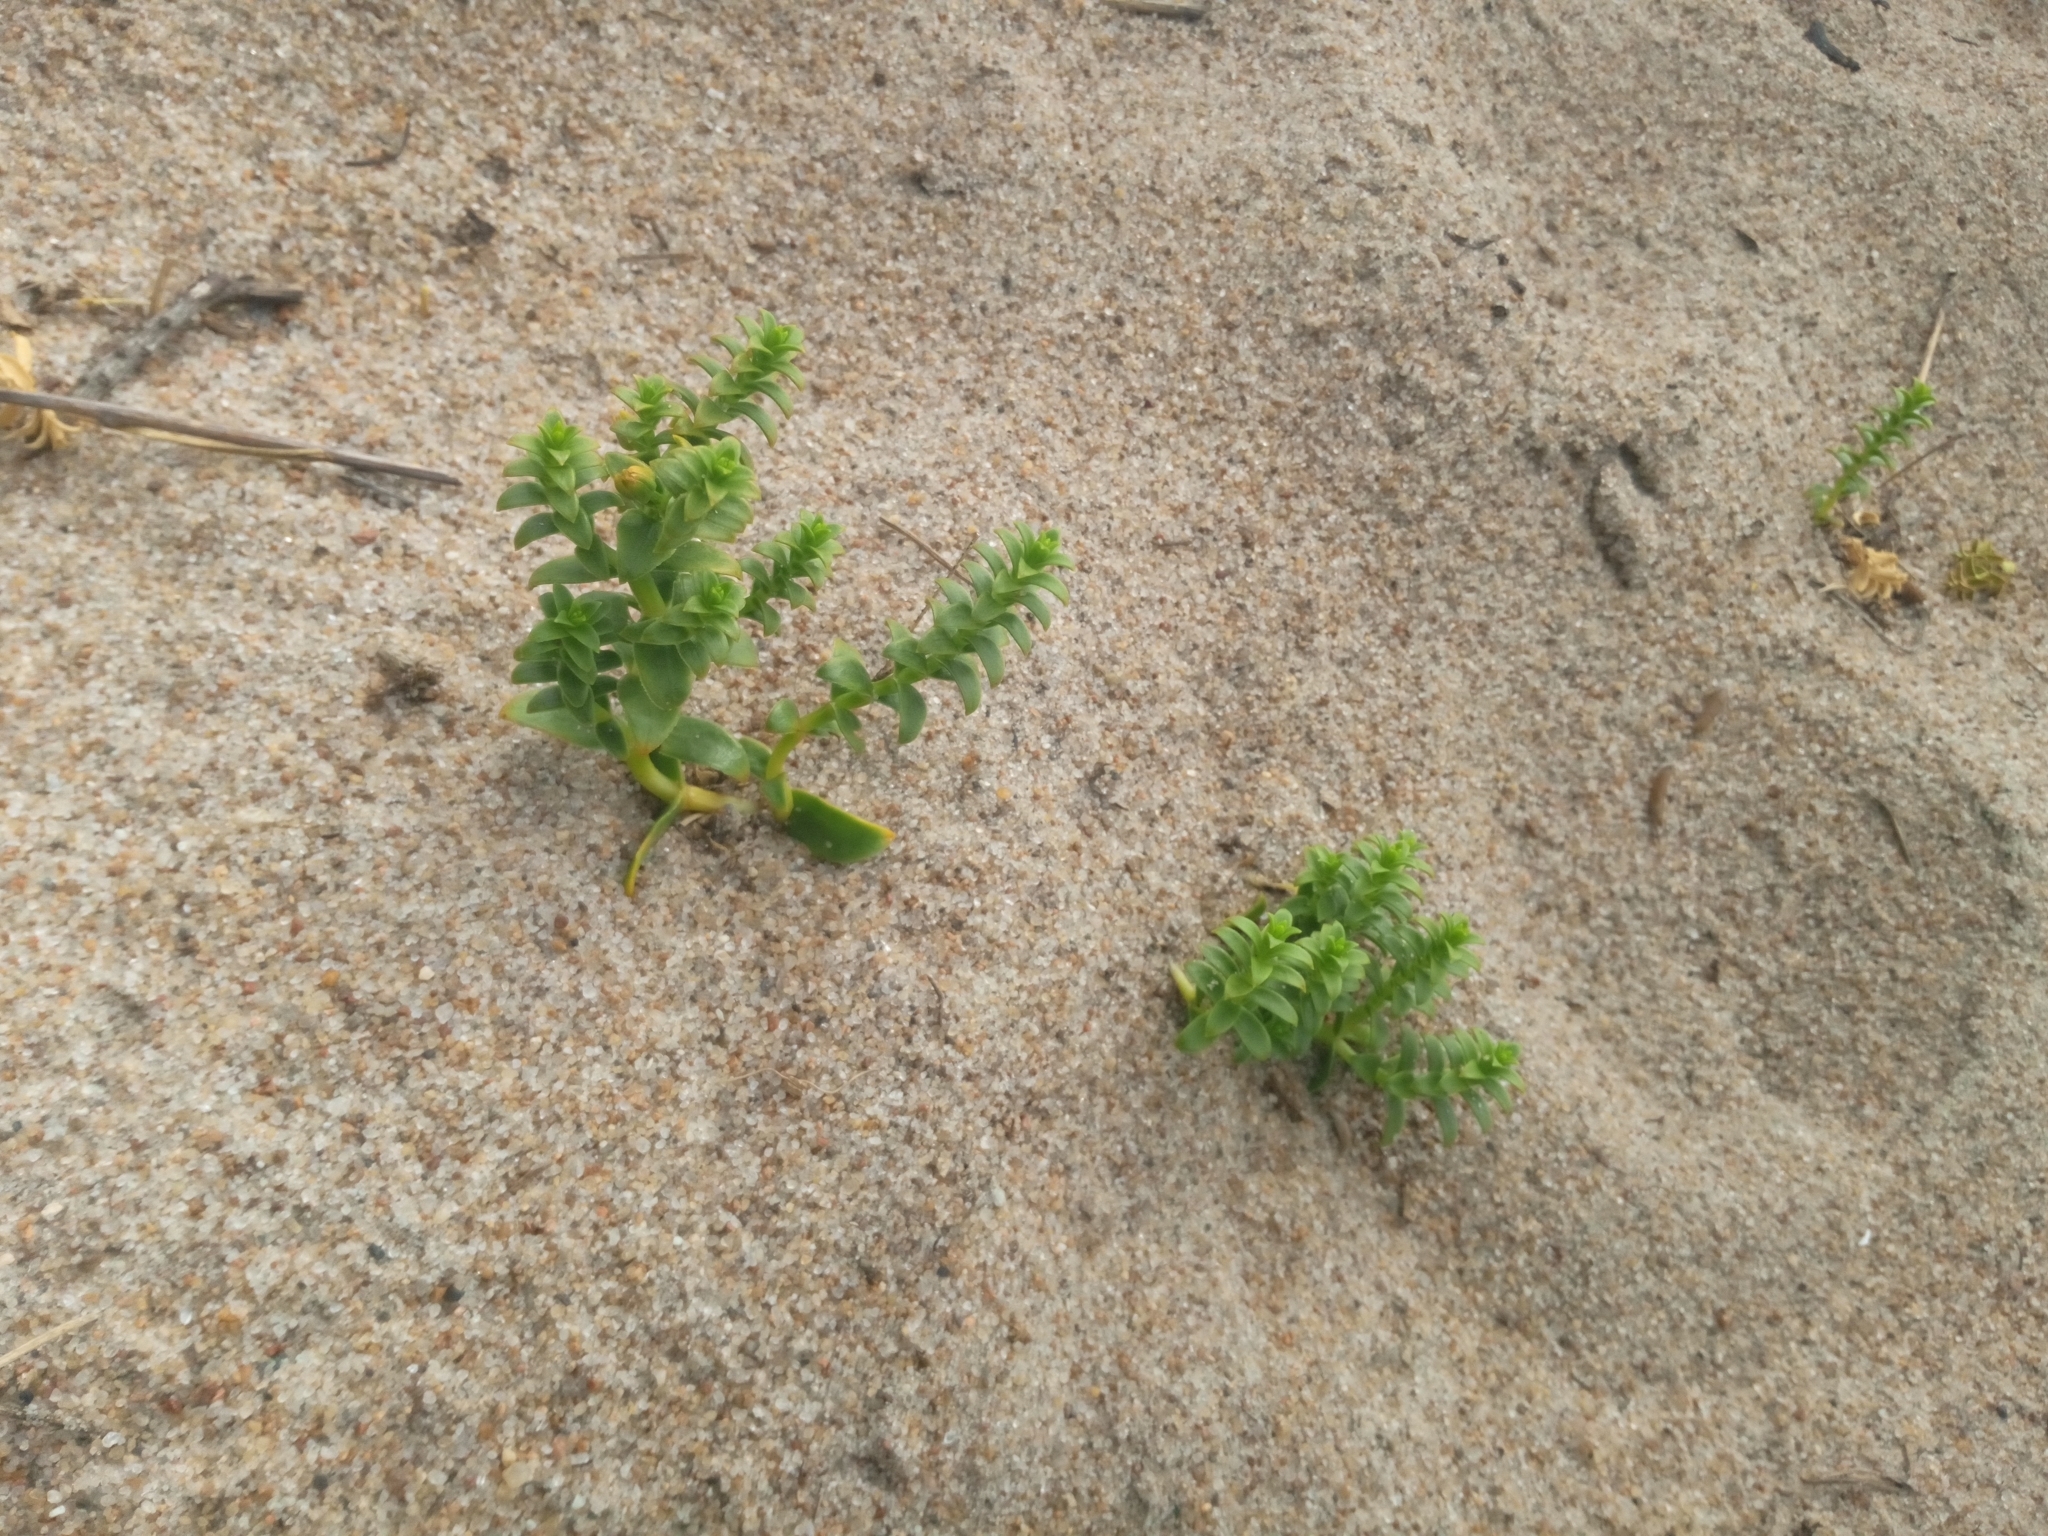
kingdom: Plantae
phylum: Tracheophyta
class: Magnoliopsida
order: Caryophyllales
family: Caryophyllaceae
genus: Honckenya
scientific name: Honckenya peploides
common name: Sea sandwort
